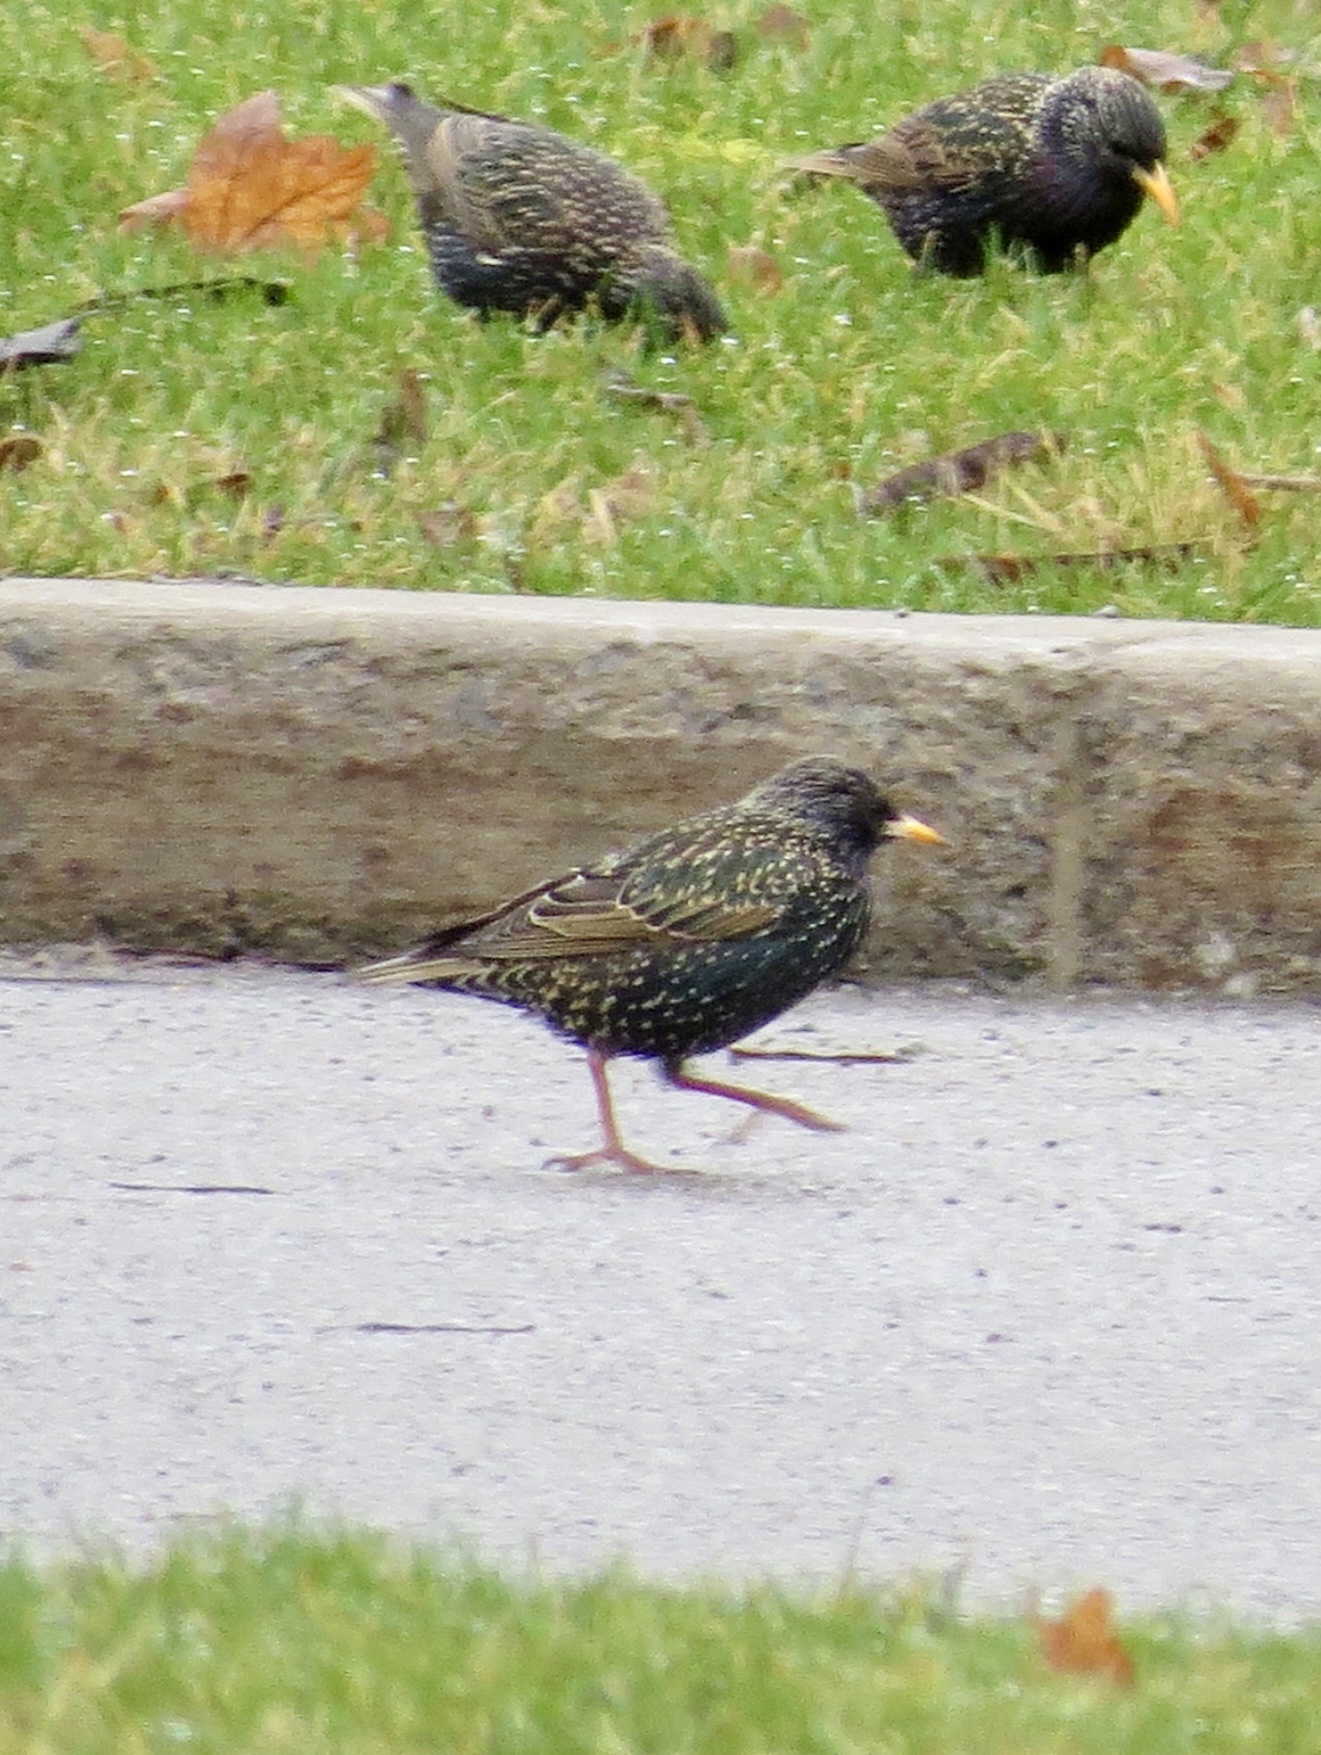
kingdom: Animalia
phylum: Chordata
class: Aves
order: Passeriformes
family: Sturnidae
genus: Sturnus
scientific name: Sturnus vulgaris
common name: Common starling
